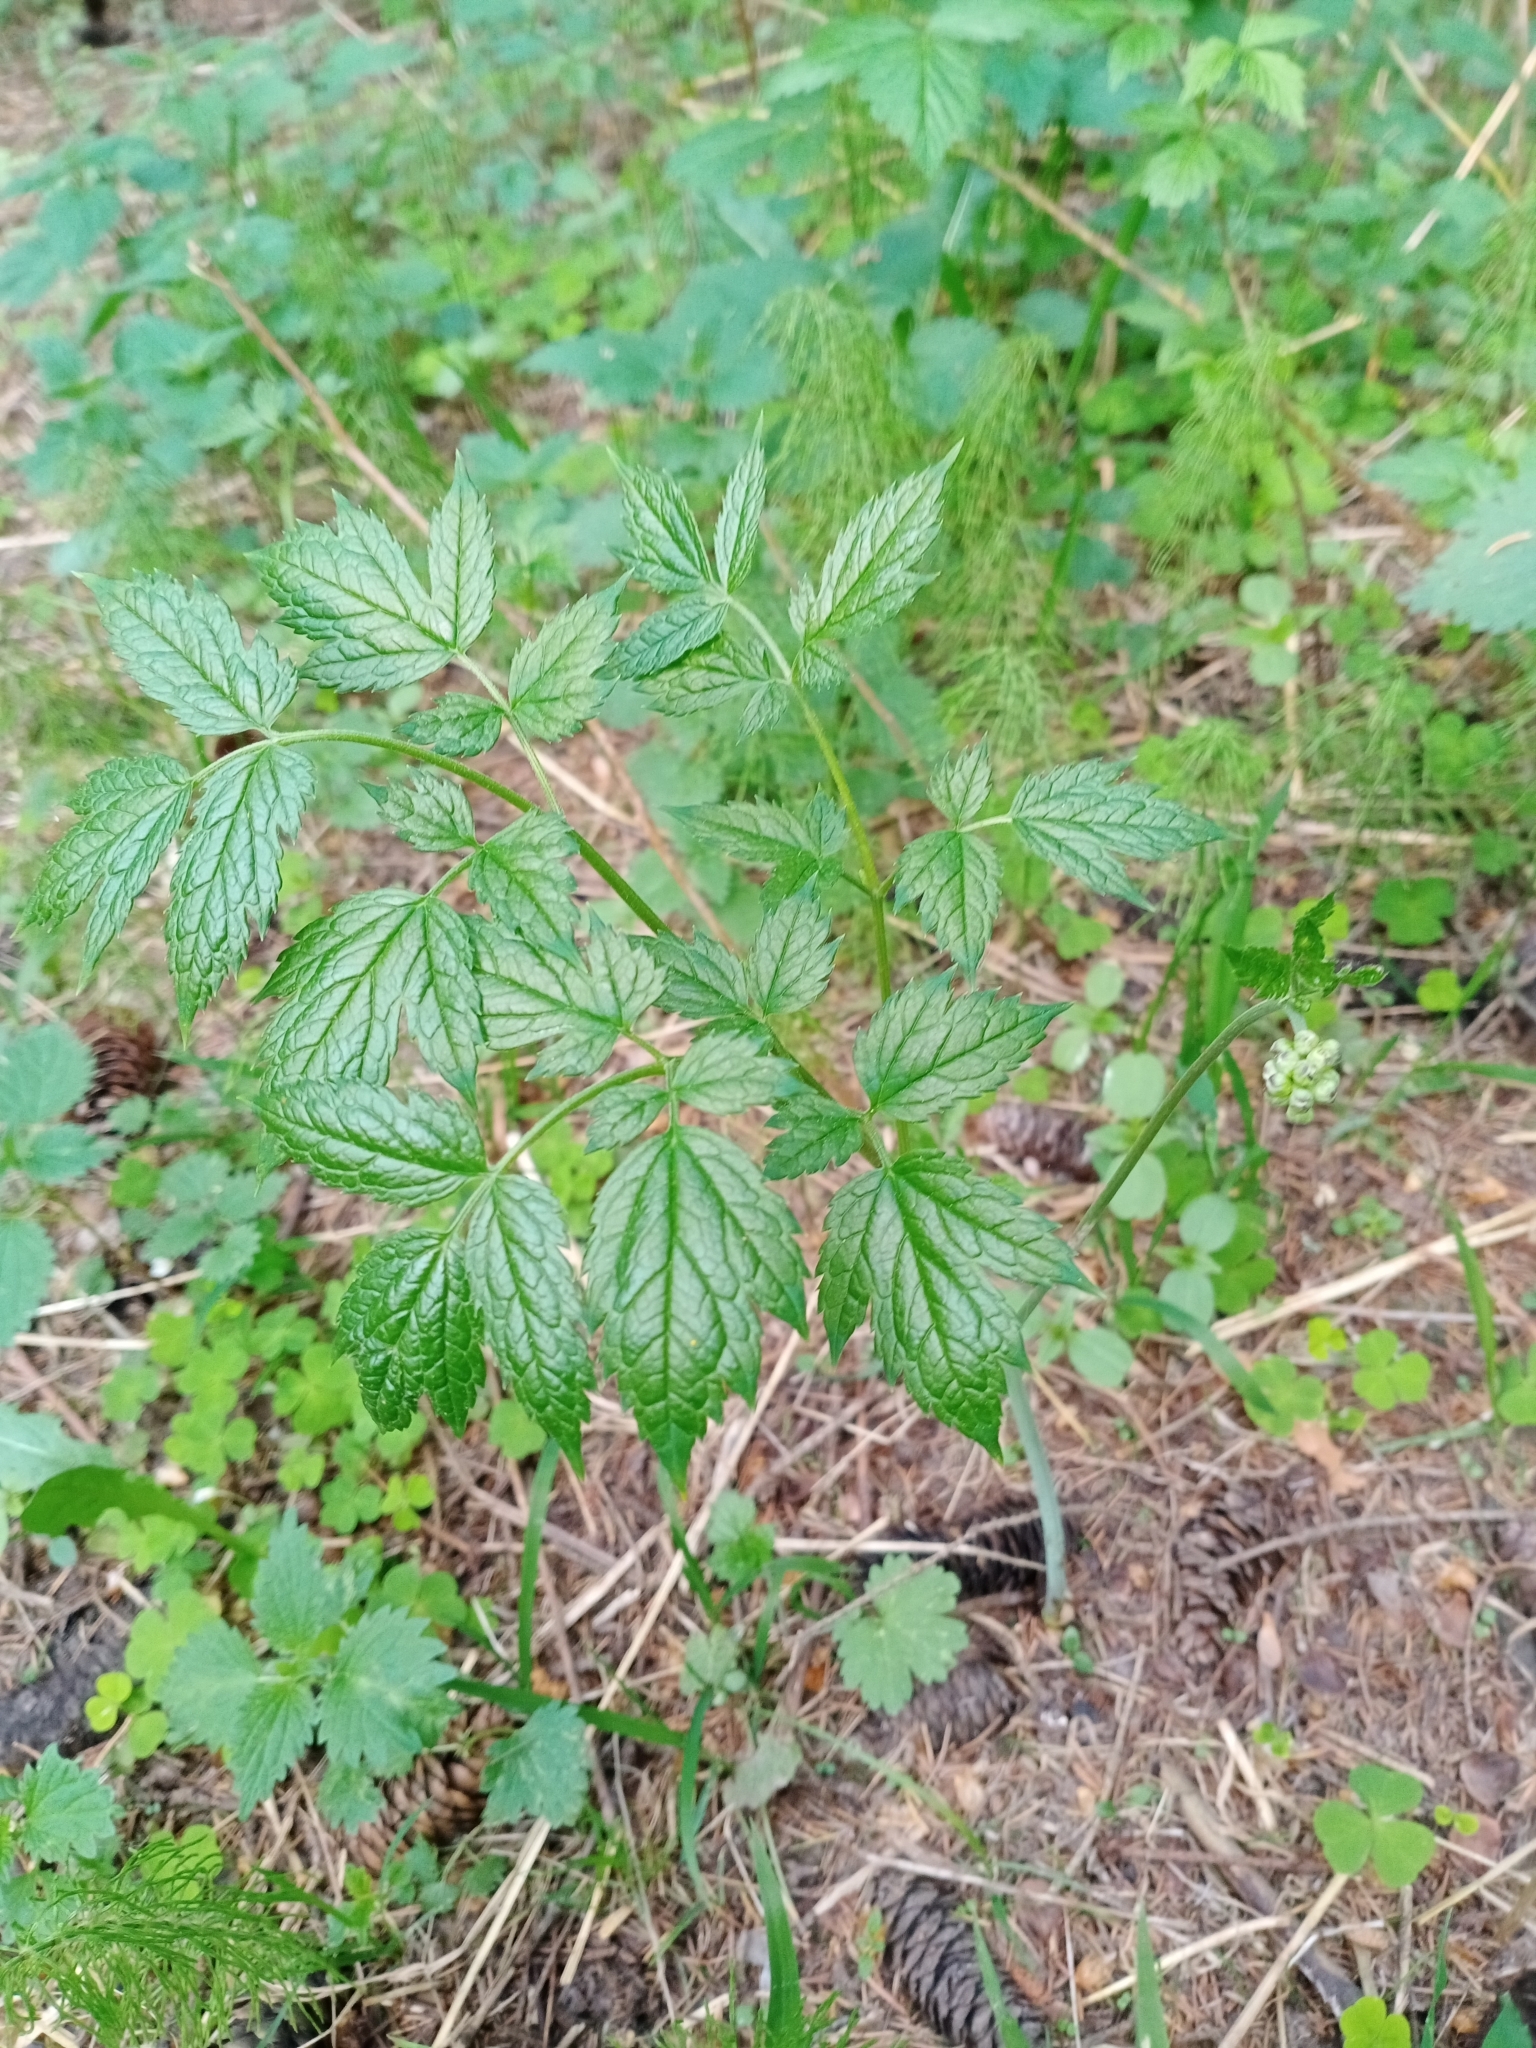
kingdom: Plantae
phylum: Tracheophyta
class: Magnoliopsida
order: Ranunculales
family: Ranunculaceae
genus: Actaea
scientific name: Actaea erythrocarpa
